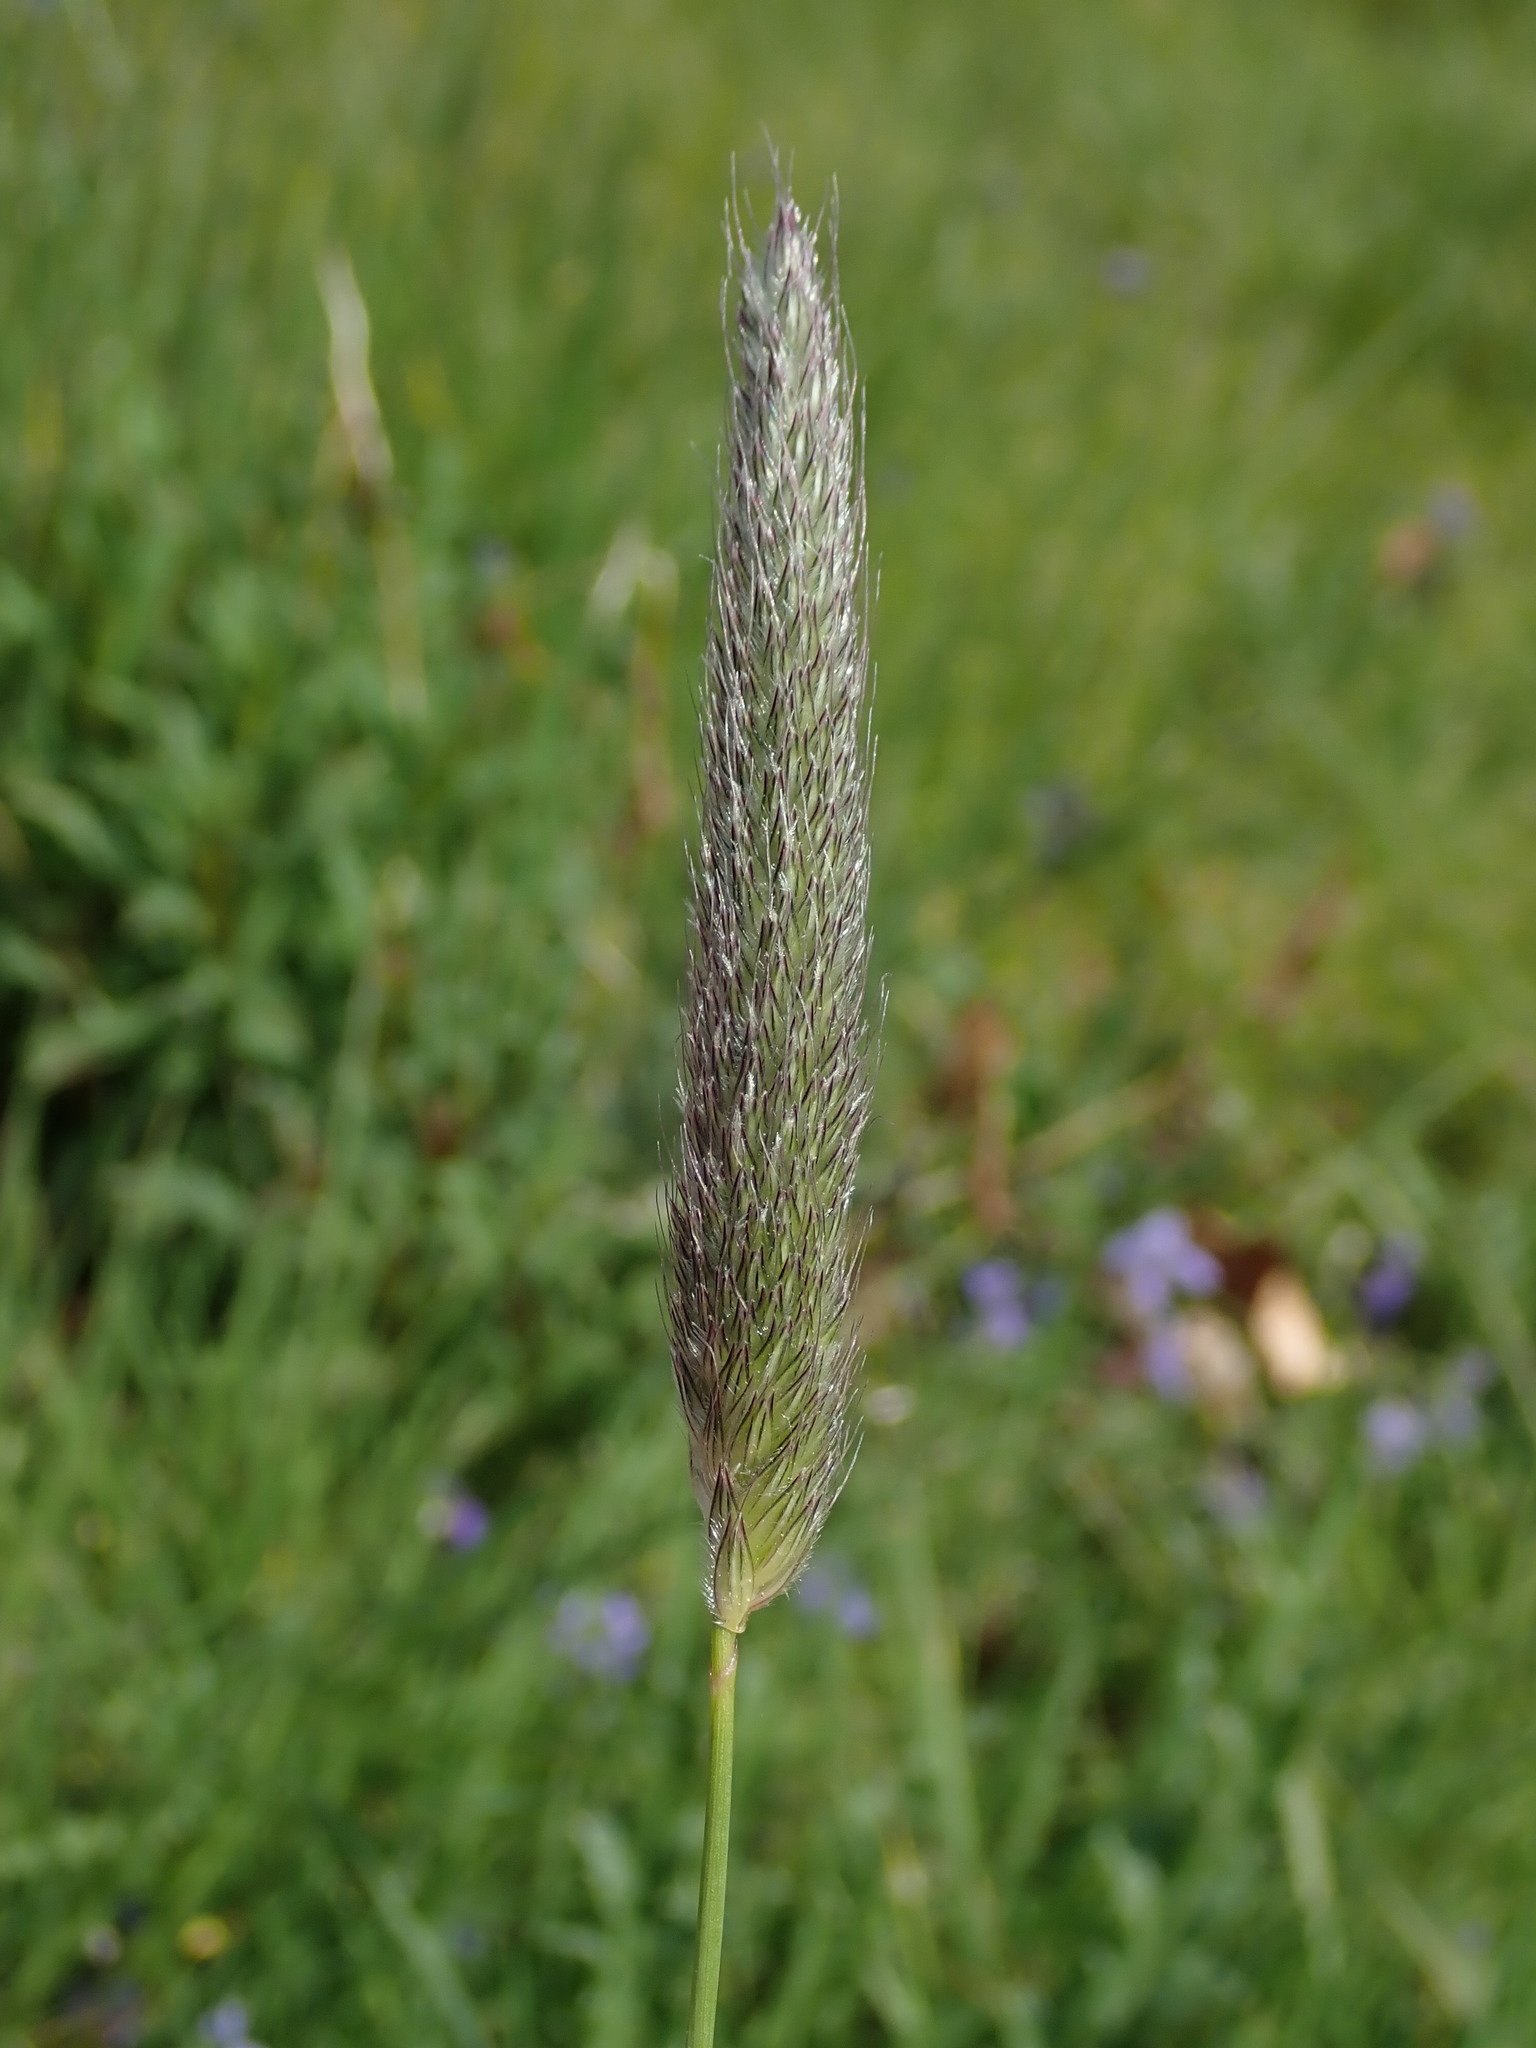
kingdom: Plantae
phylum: Tracheophyta
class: Liliopsida
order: Poales
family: Poaceae
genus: Alopecurus
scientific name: Alopecurus pratensis
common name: Meadow foxtail
